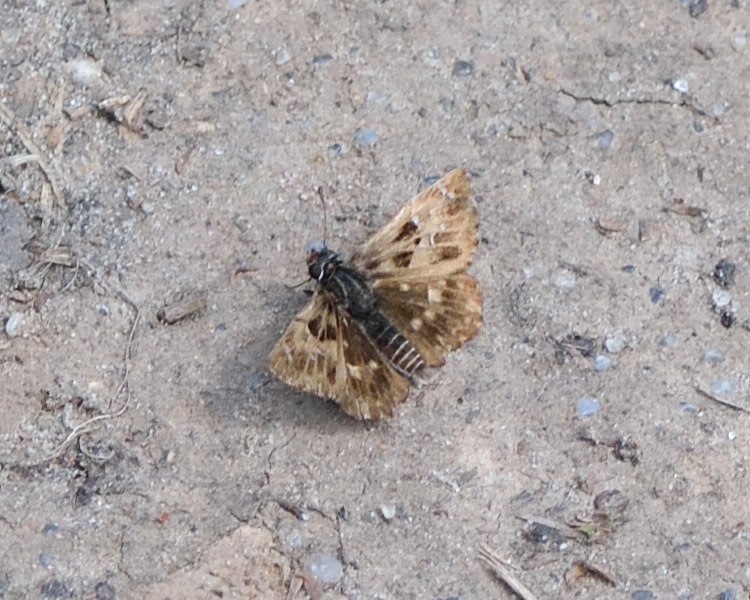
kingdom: Animalia
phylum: Arthropoda
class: Insecta
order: Lepidoptera
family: Hesperiidae
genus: Carcharodus
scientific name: Carcharodus alceae
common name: Mallow skipper
